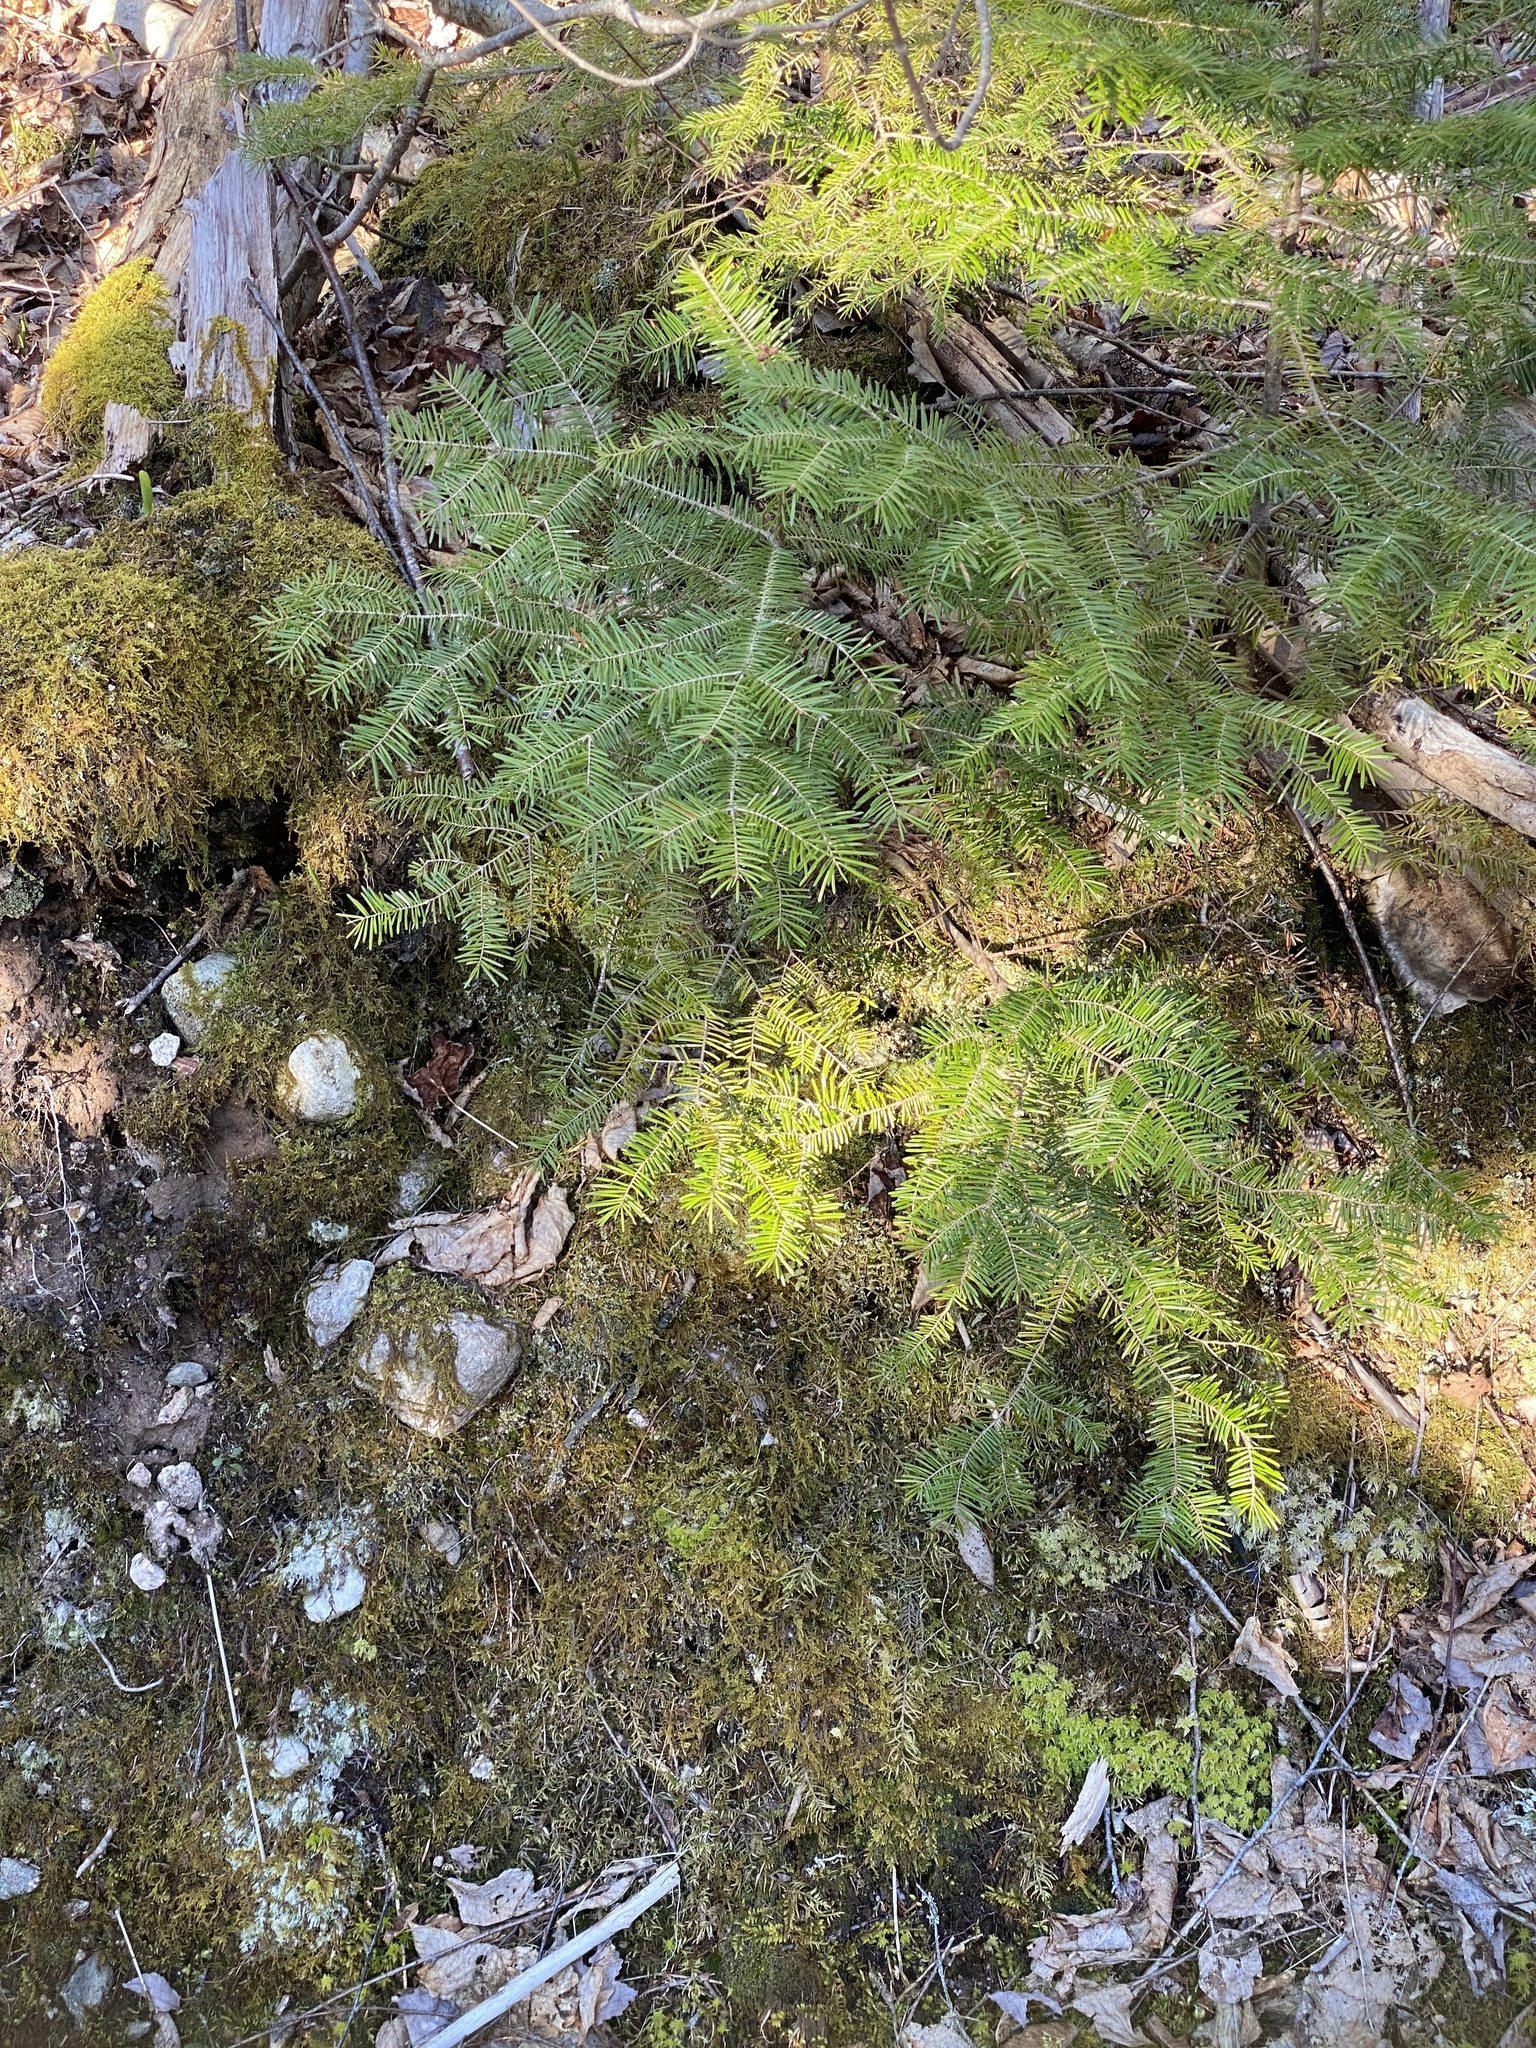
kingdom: Plantae
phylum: Tracheophyta
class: Pinopsida
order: Pinales
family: Pinaceae
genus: Abies
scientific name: Abies balsamea
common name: Balsam fir
